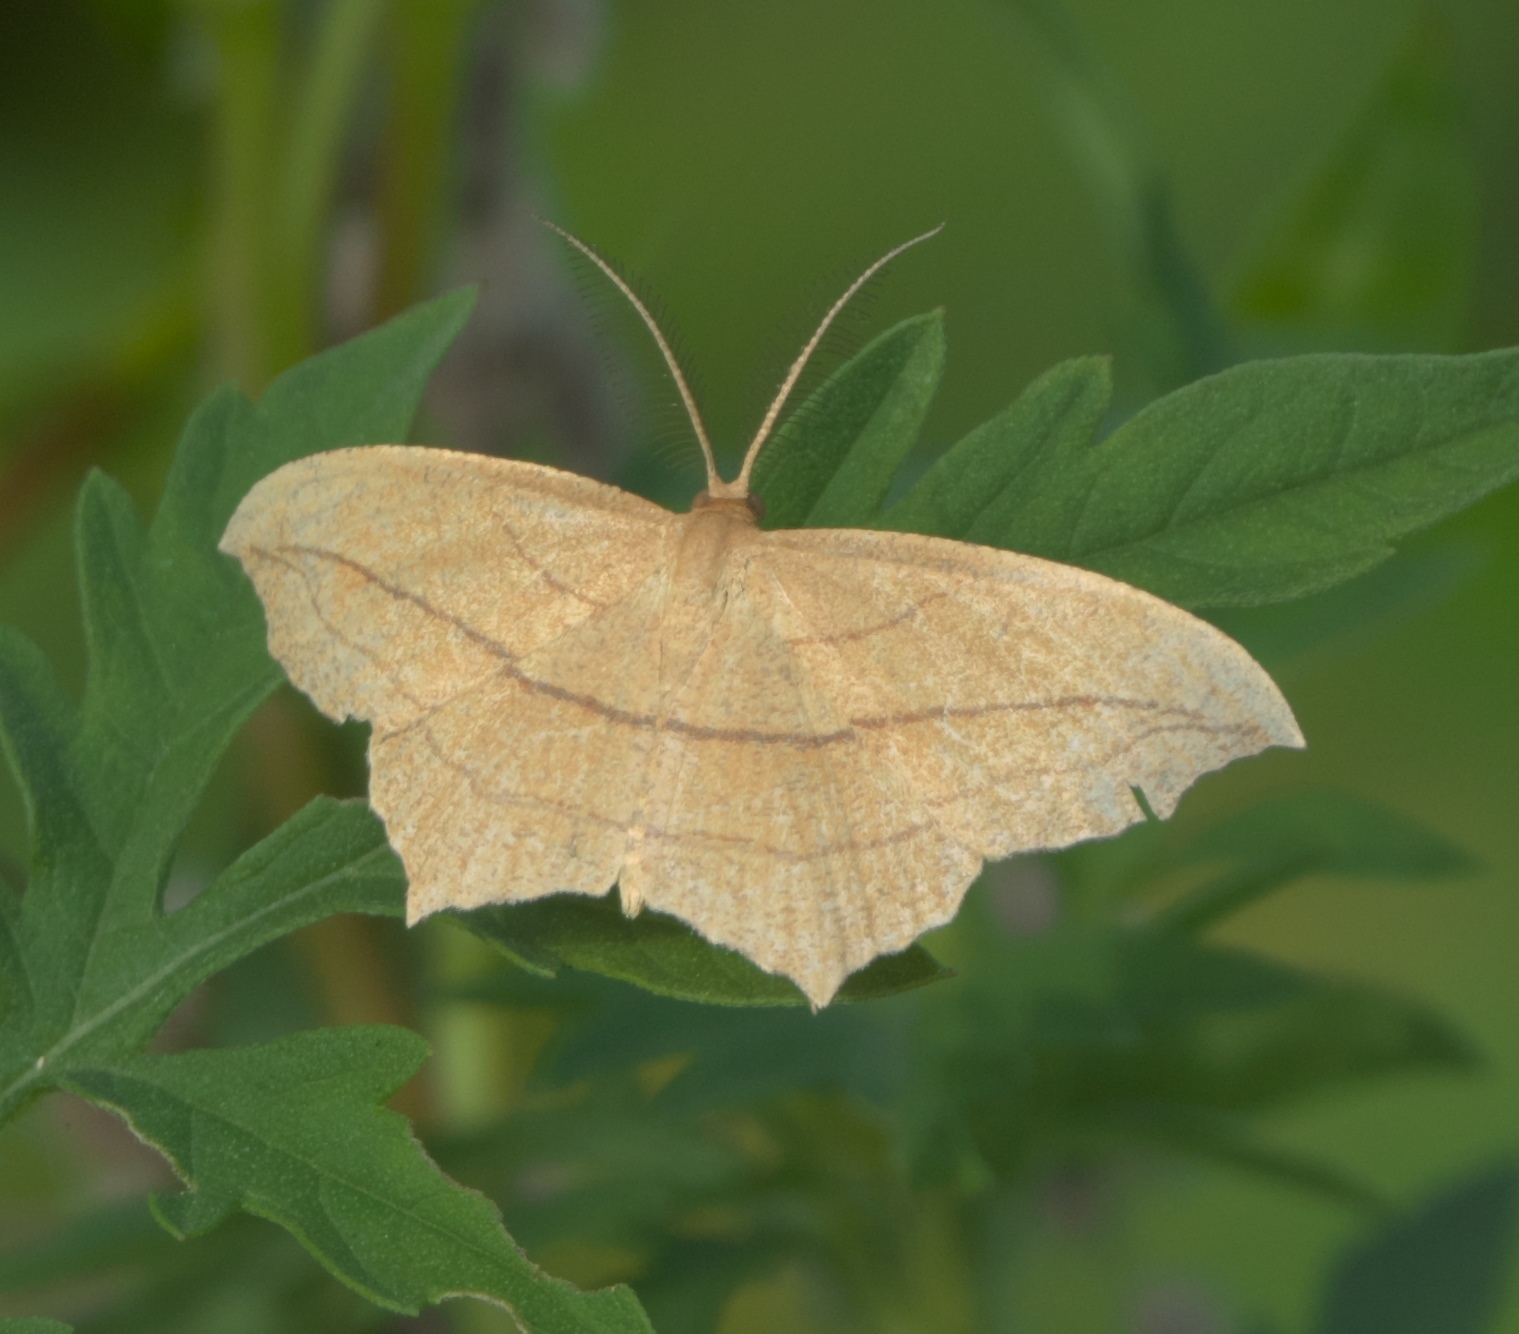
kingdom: Animalia
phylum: Arthropoda
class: Insecta
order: Lepidoptera
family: Geometridae
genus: Timandra
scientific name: Timandra amaturaria
